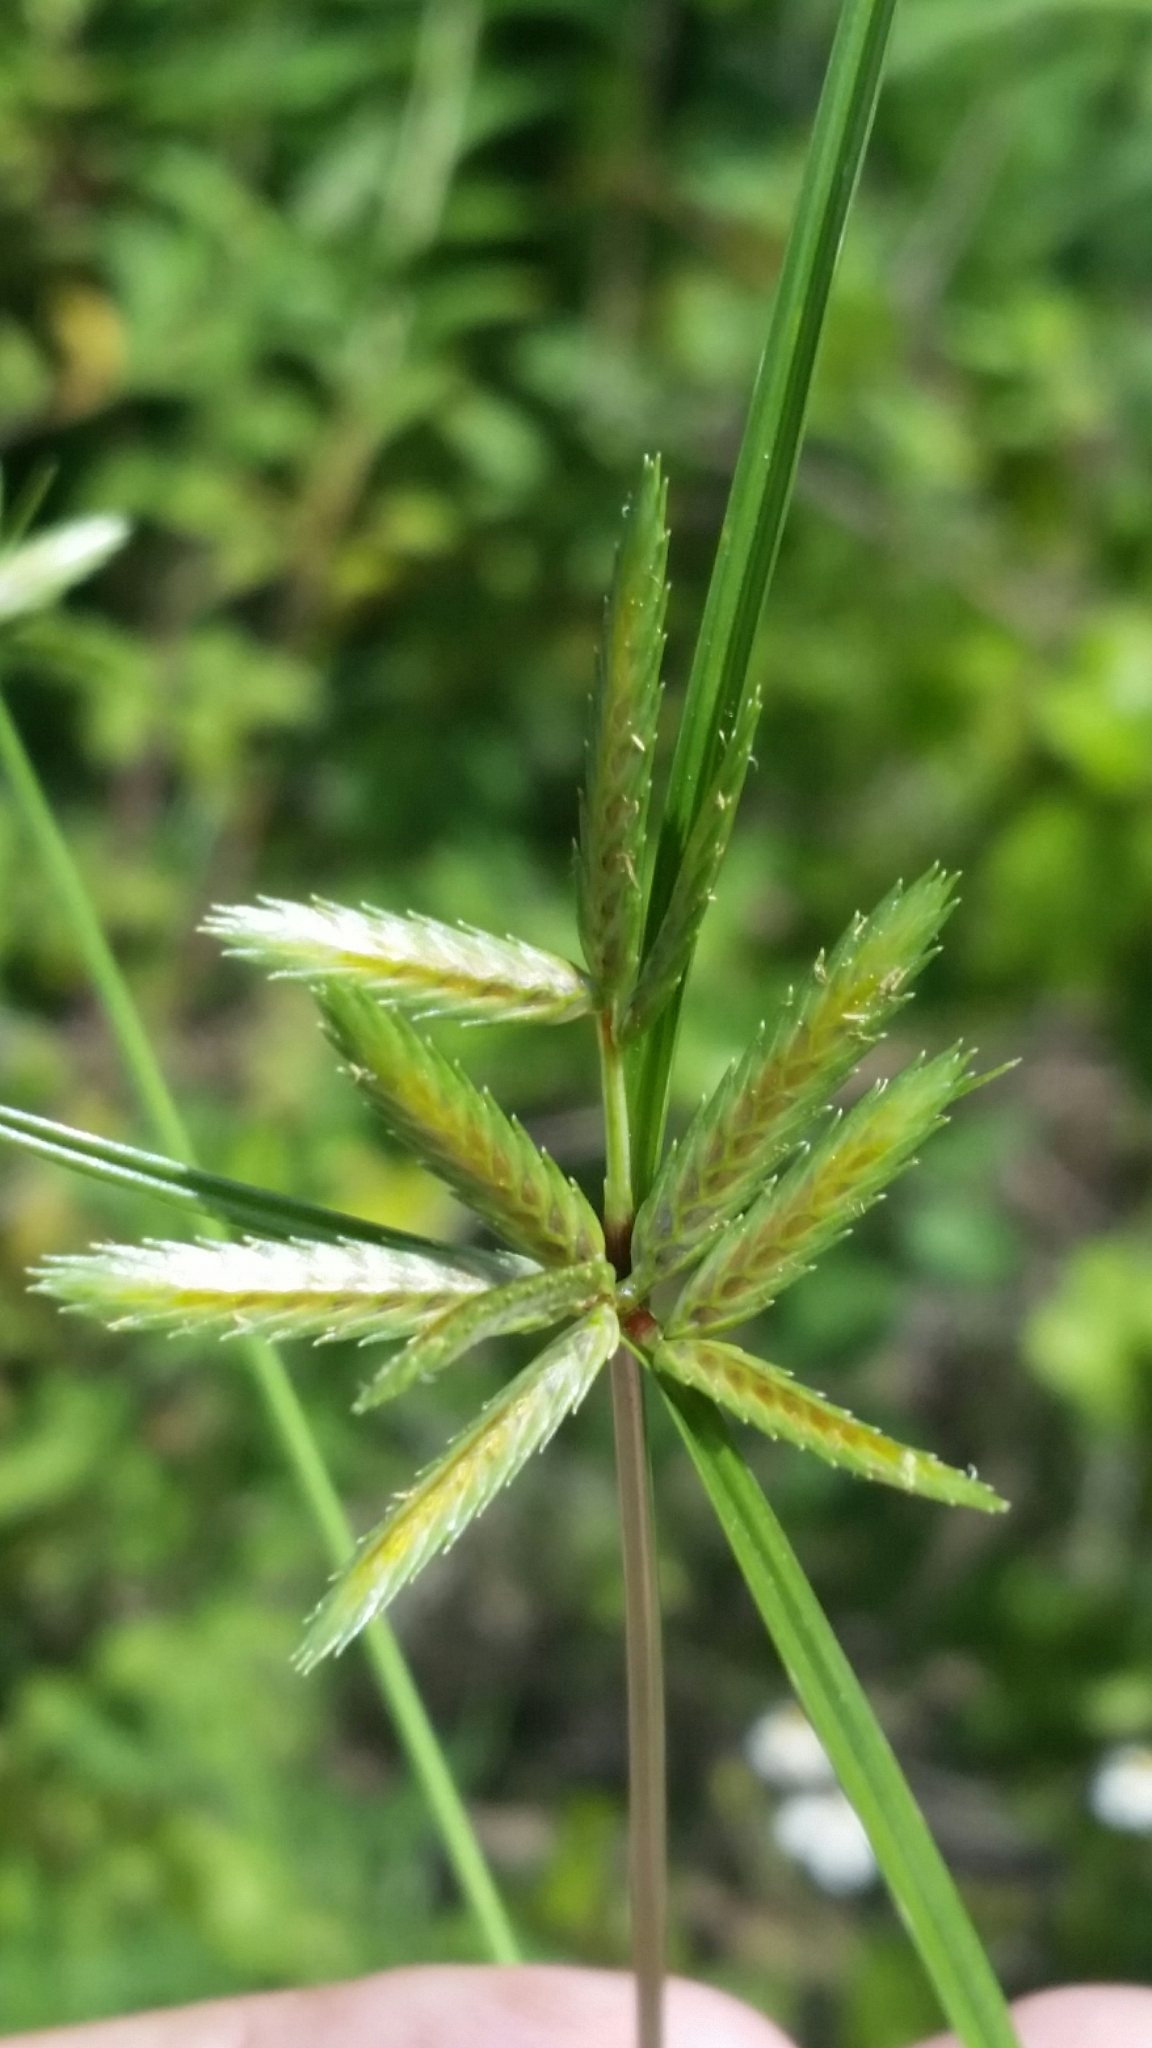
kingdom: Plantae
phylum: Tracheophyta
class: Liliopsida
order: Poales
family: Cyperaceae
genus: Cyperus
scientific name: Cyperus compressus
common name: Poorland flatsedge
